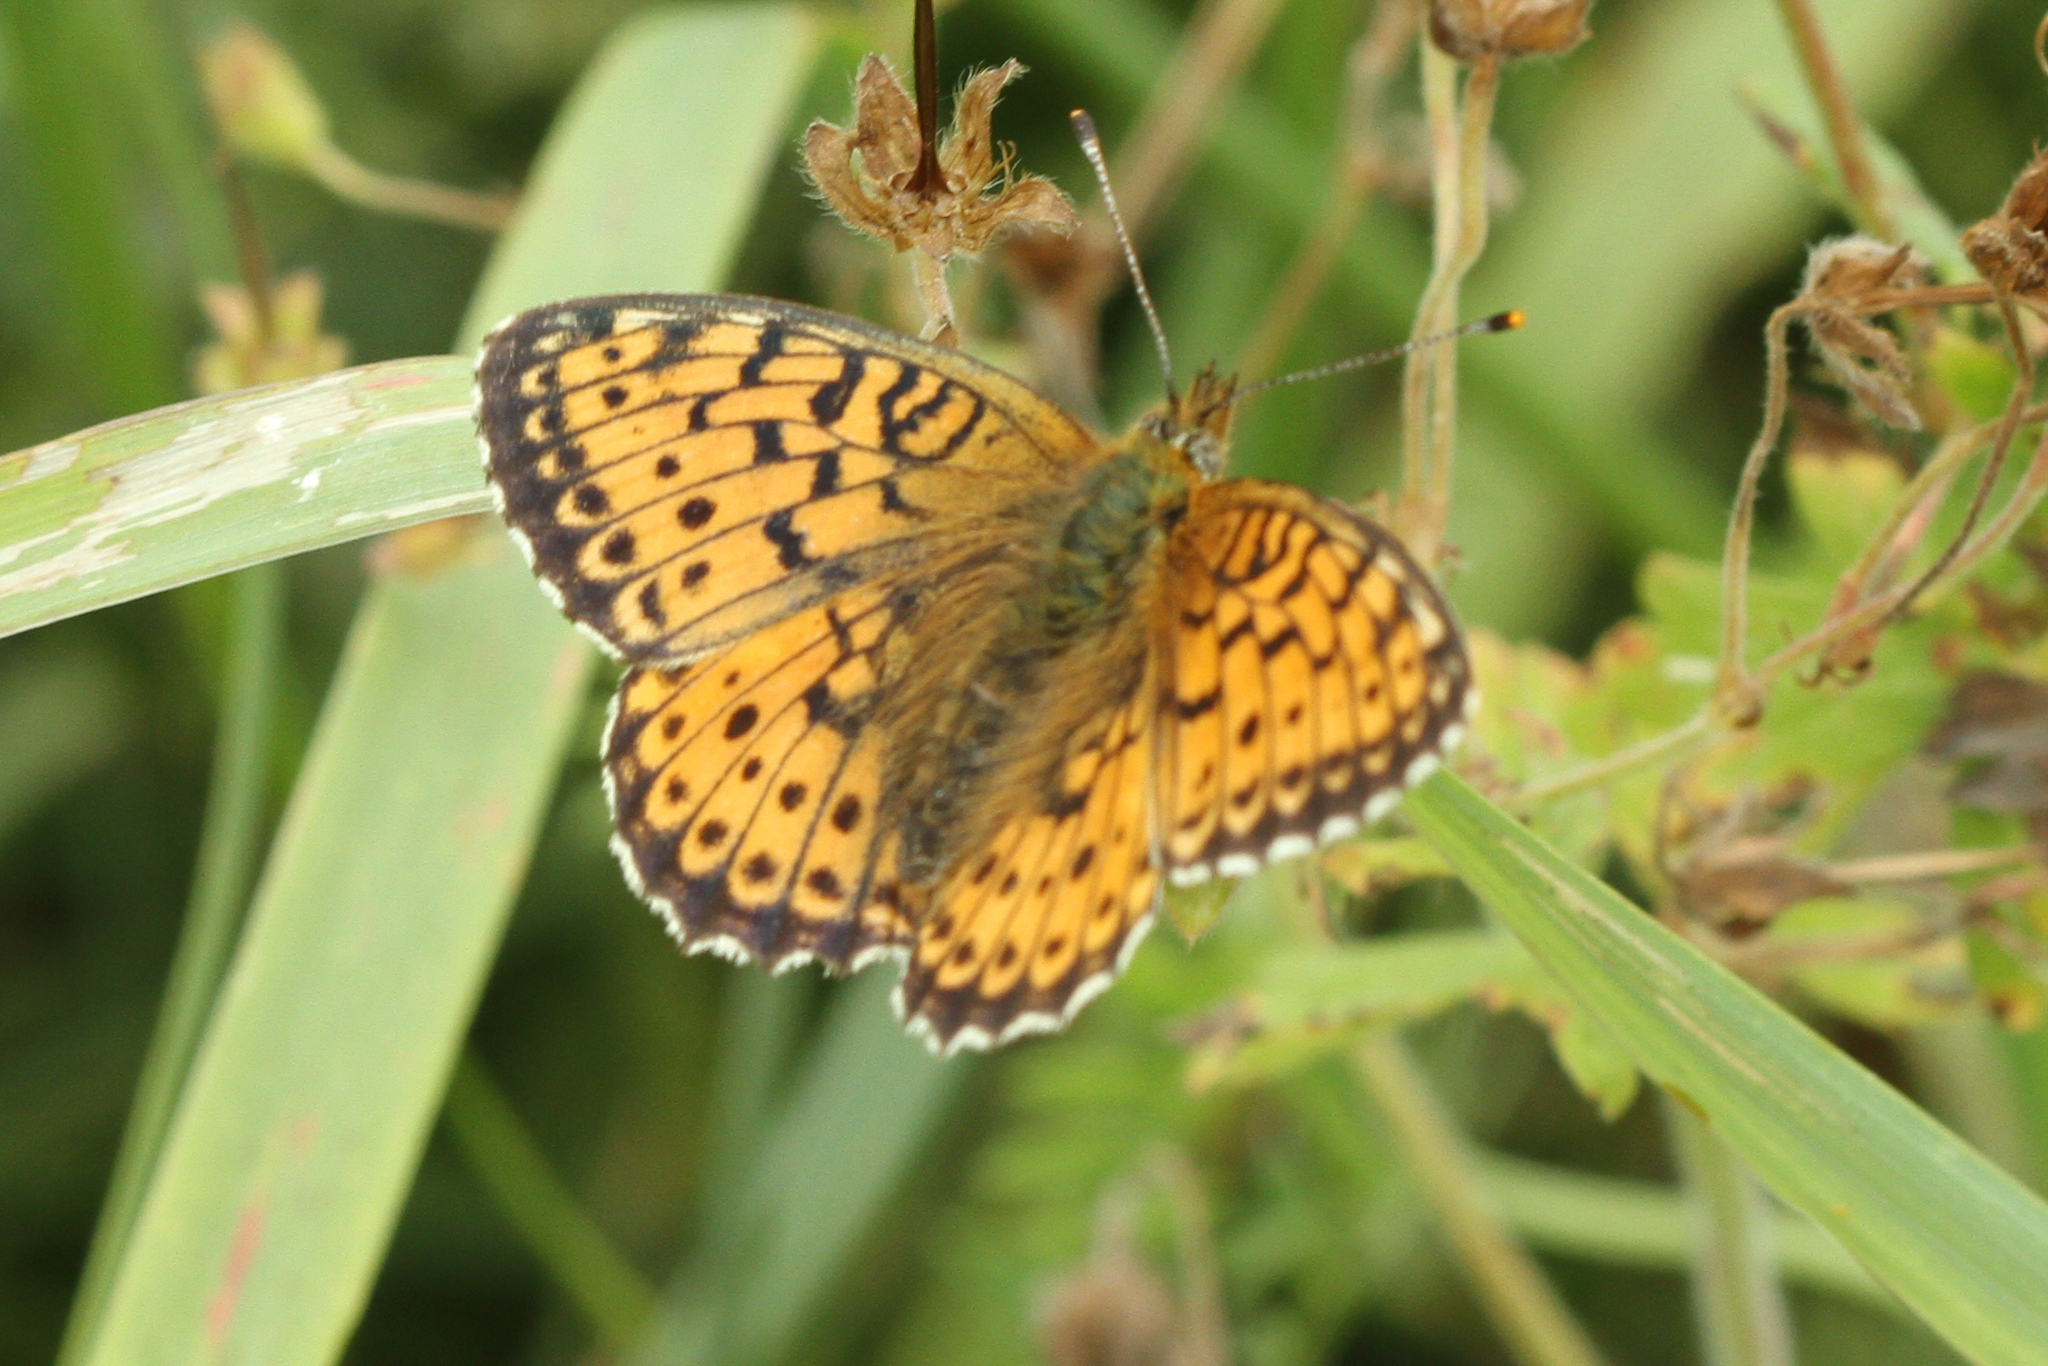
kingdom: Animalia
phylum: Arthropoda
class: Insecta
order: Lepidoptera
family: Nymphalidae
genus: Brenthis
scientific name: Brenthis ino
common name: Lesser marbled fritillary
